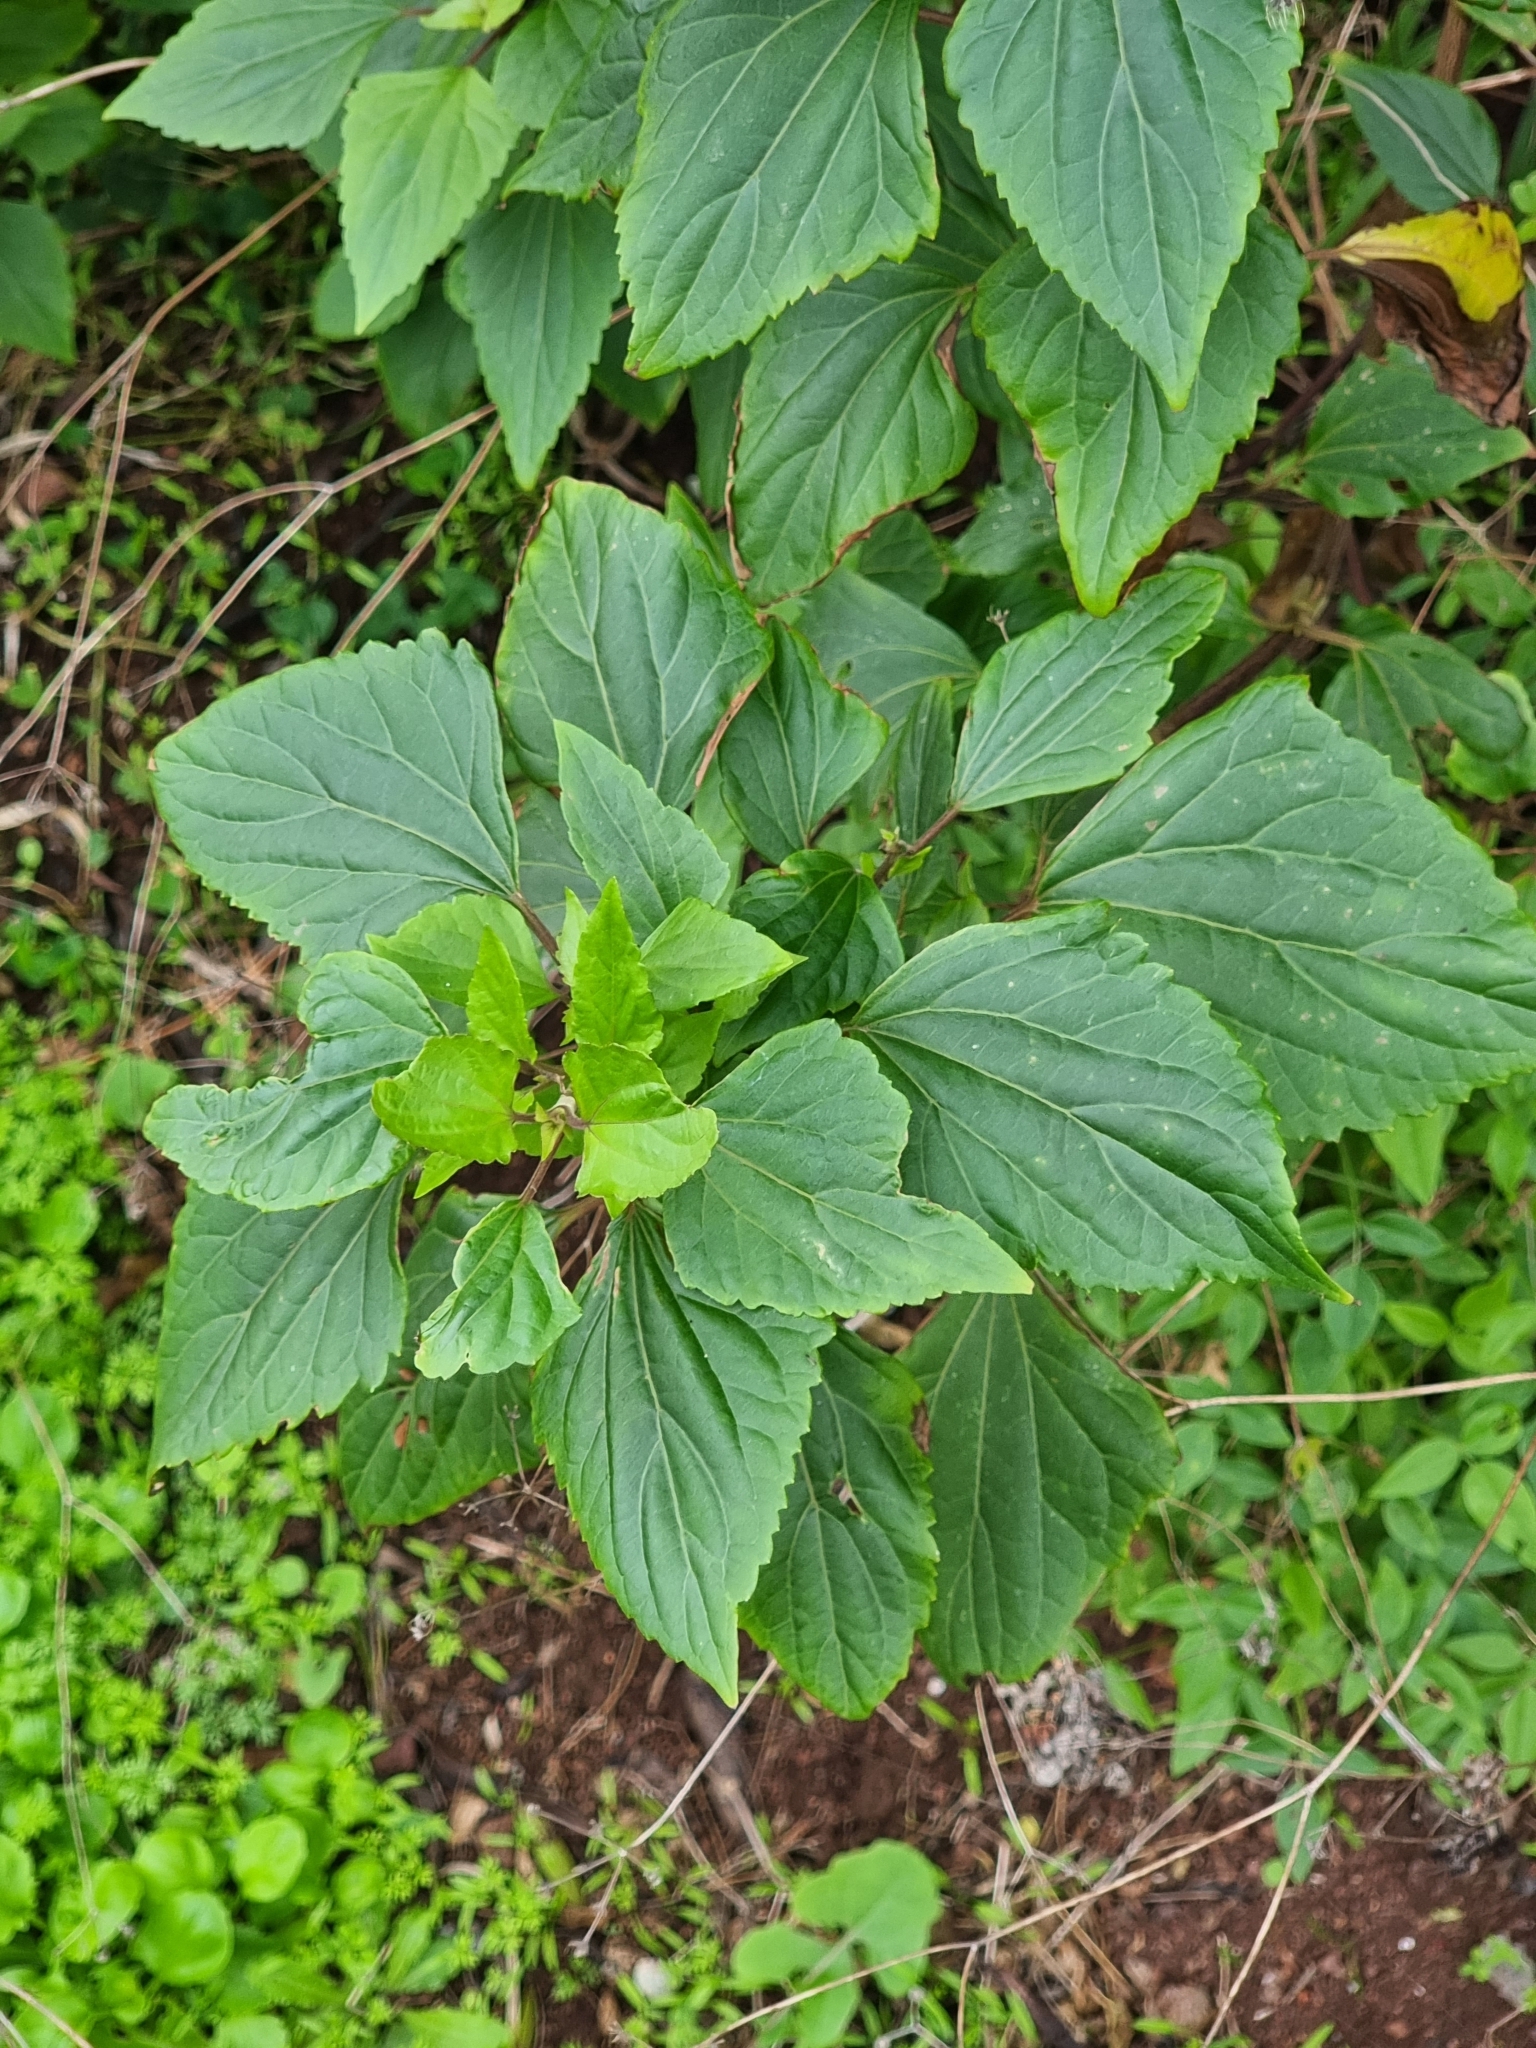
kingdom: Plantae
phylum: Tracheophyta
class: Magnoliopsida
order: Asterales
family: Asteraceae
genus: Ageratina
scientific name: Ageratina adenophora
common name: Sticky snakeroot
